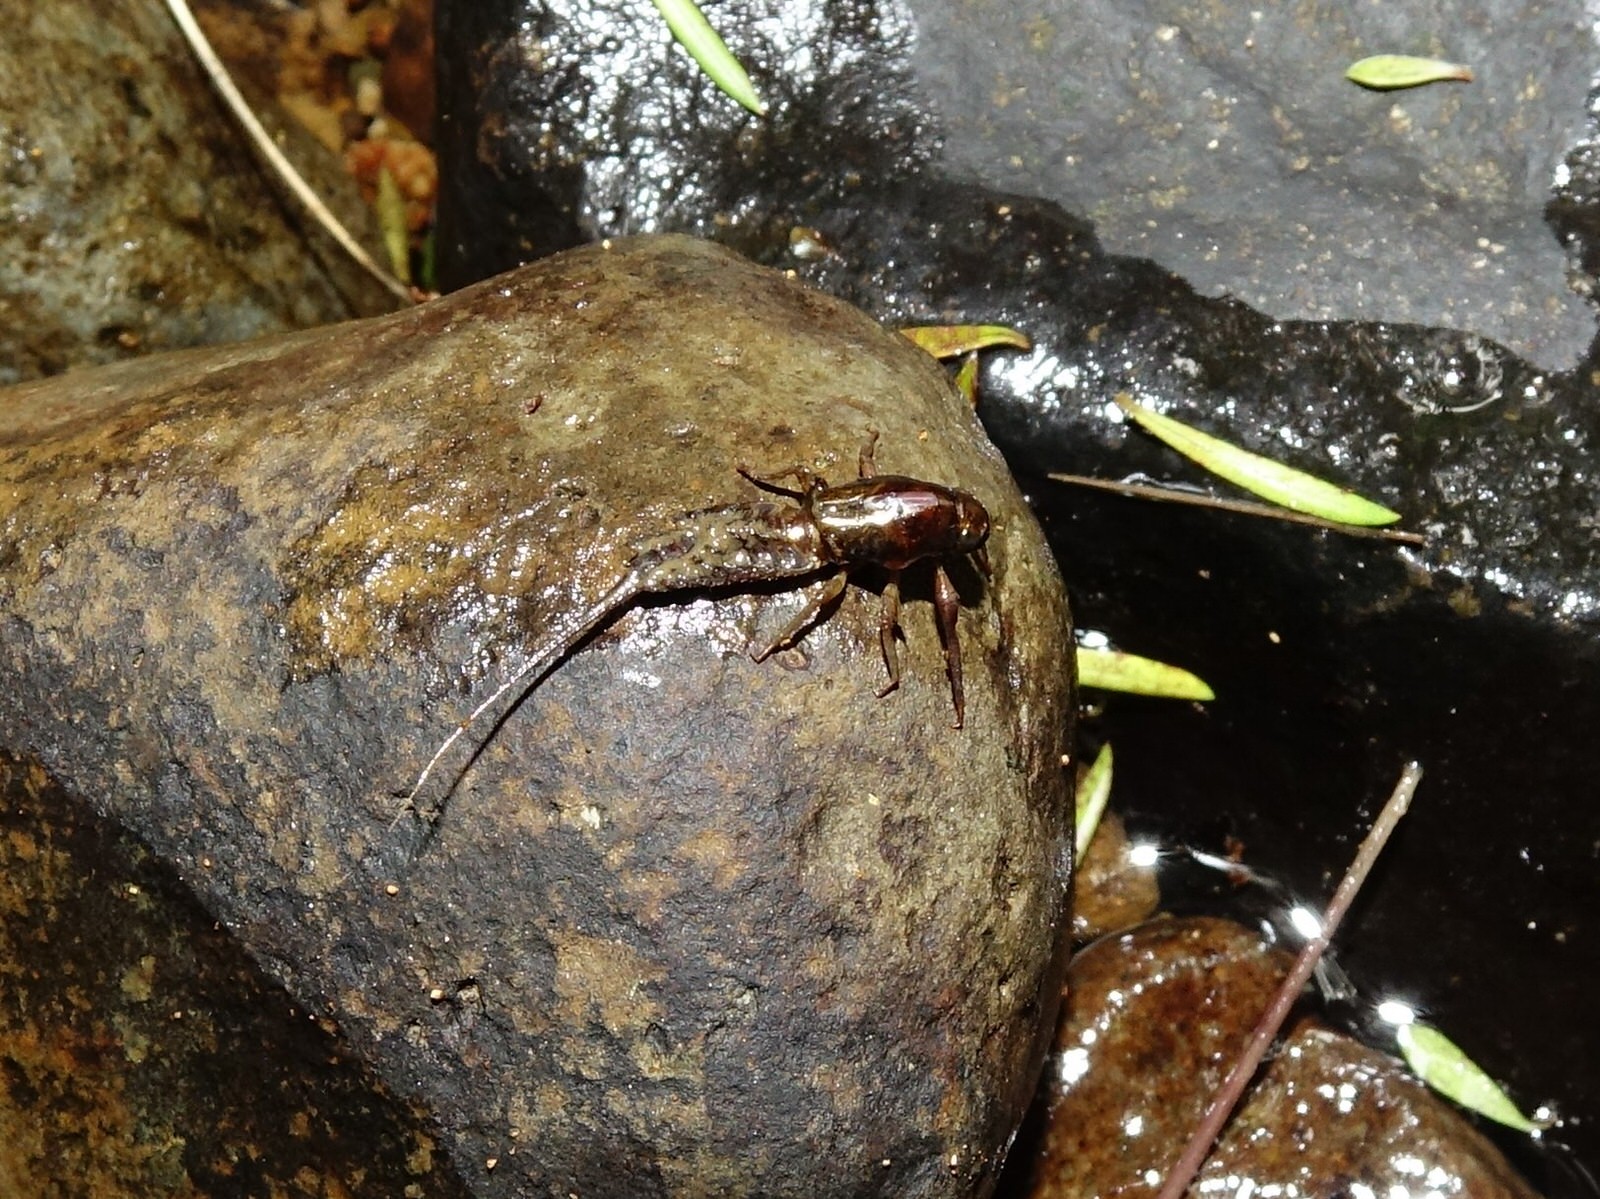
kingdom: Animalia
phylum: Arthropoda
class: Insecta
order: Ephemeroptera
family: Coloburiscidae
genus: Coloburiscus
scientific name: Coloburiscus humeralis
